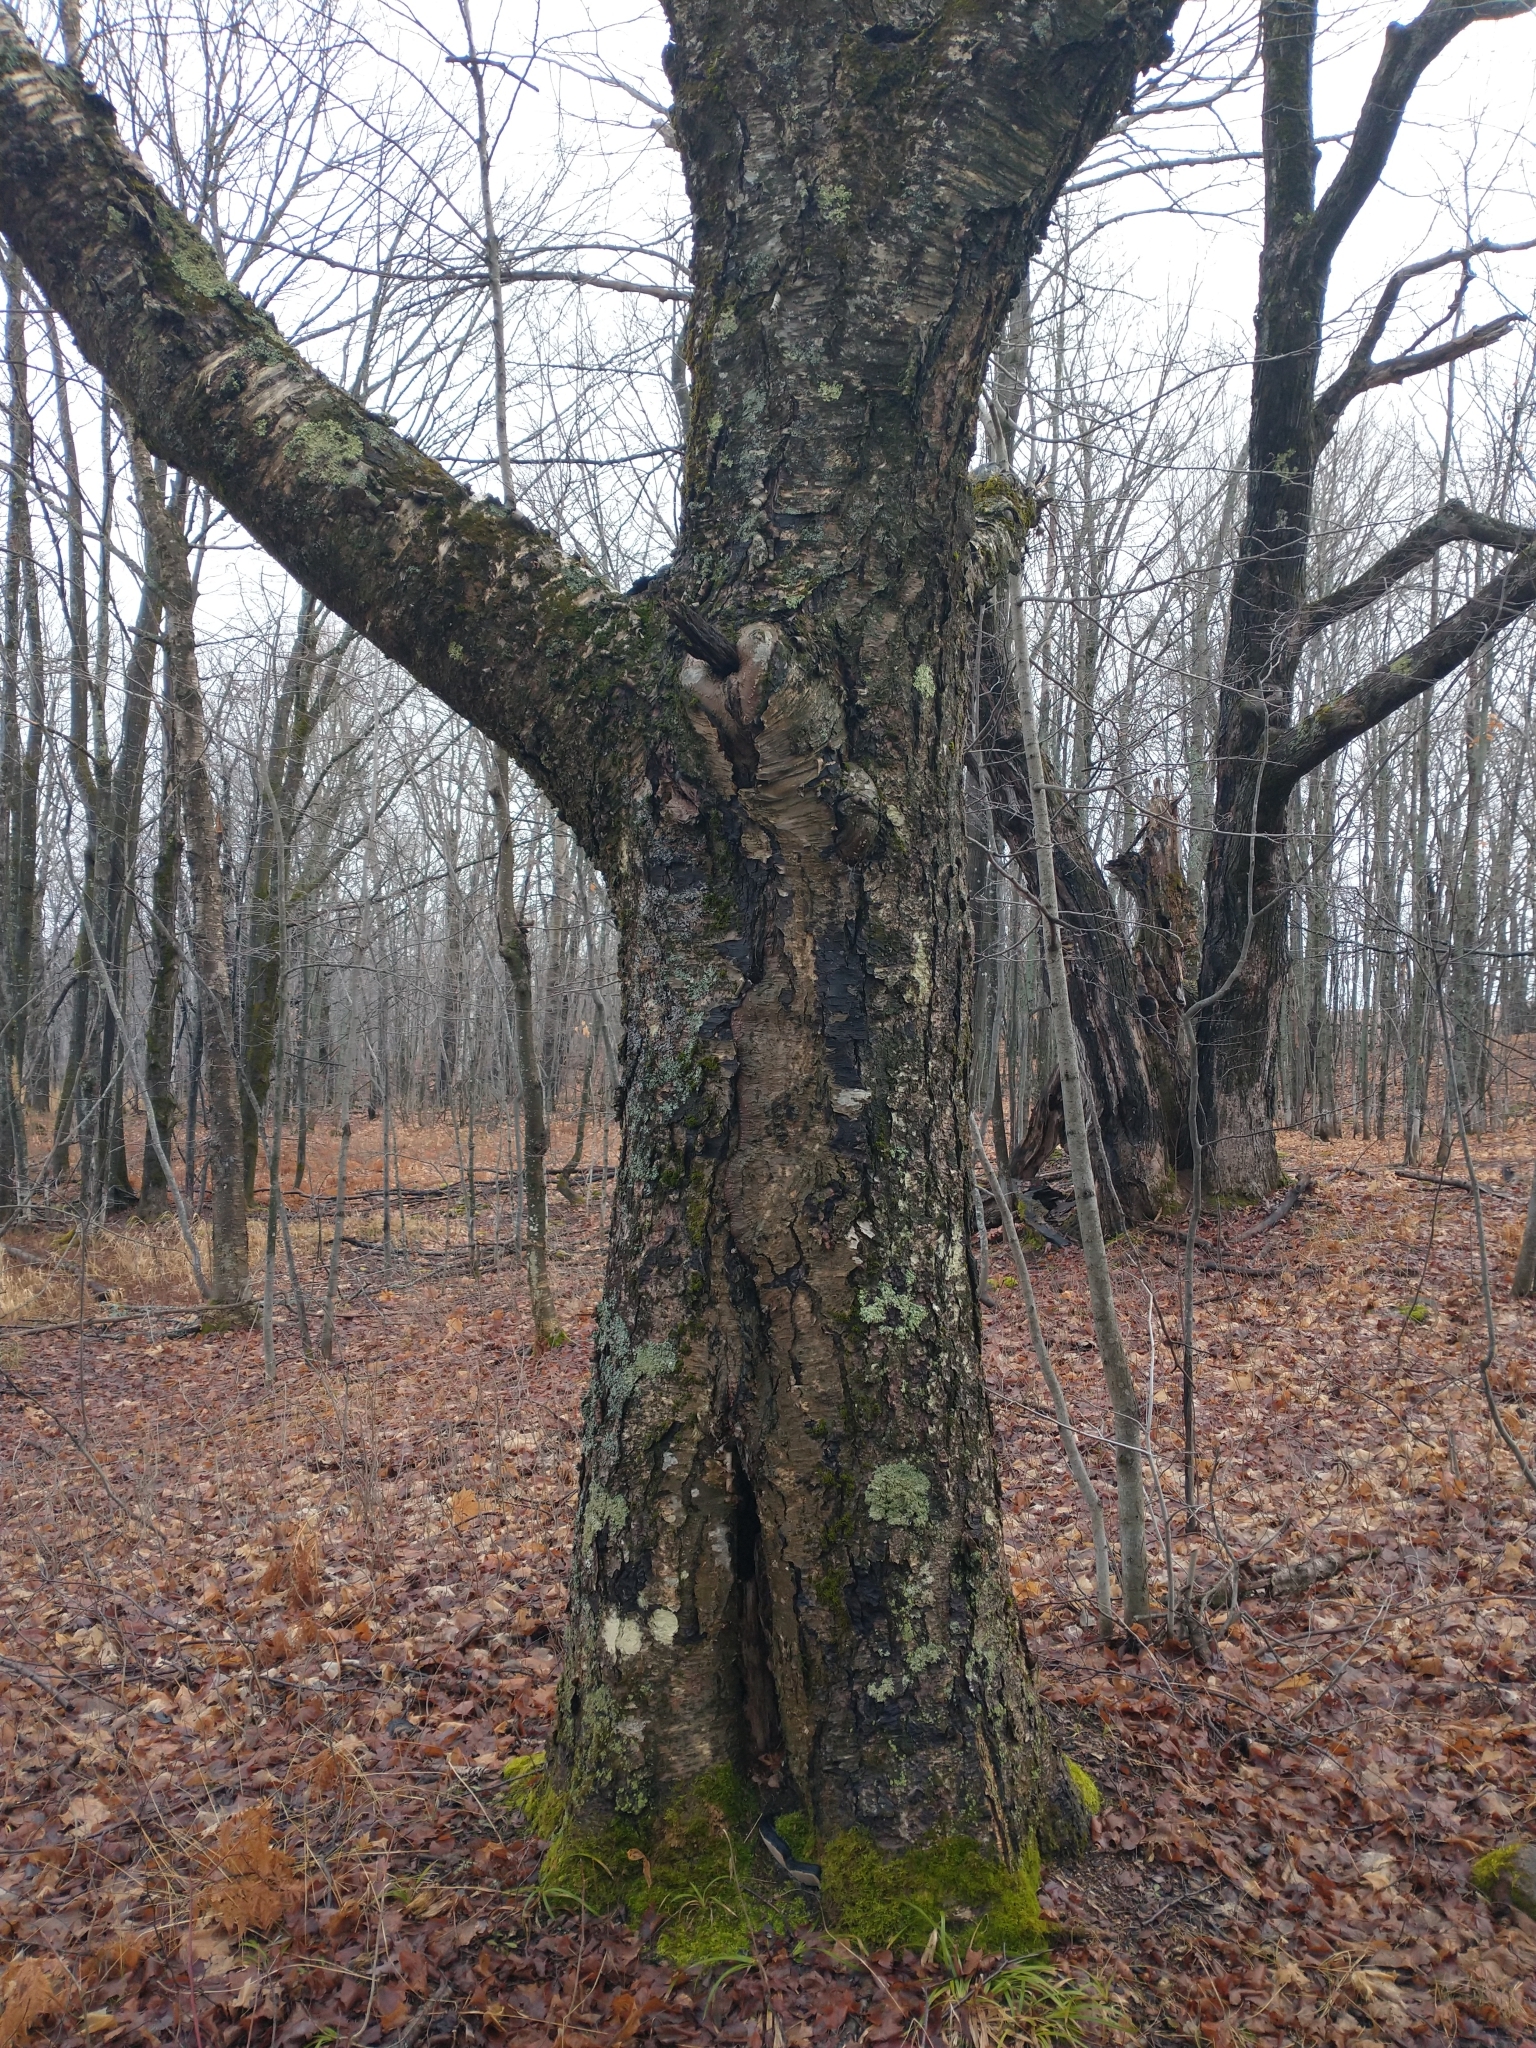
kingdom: Plantae
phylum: Tracheophyta
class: Magnoliopsida
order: Fagales
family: Betulaceae
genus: Betula
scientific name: Betula alleghaniensis
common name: Yellow birch
